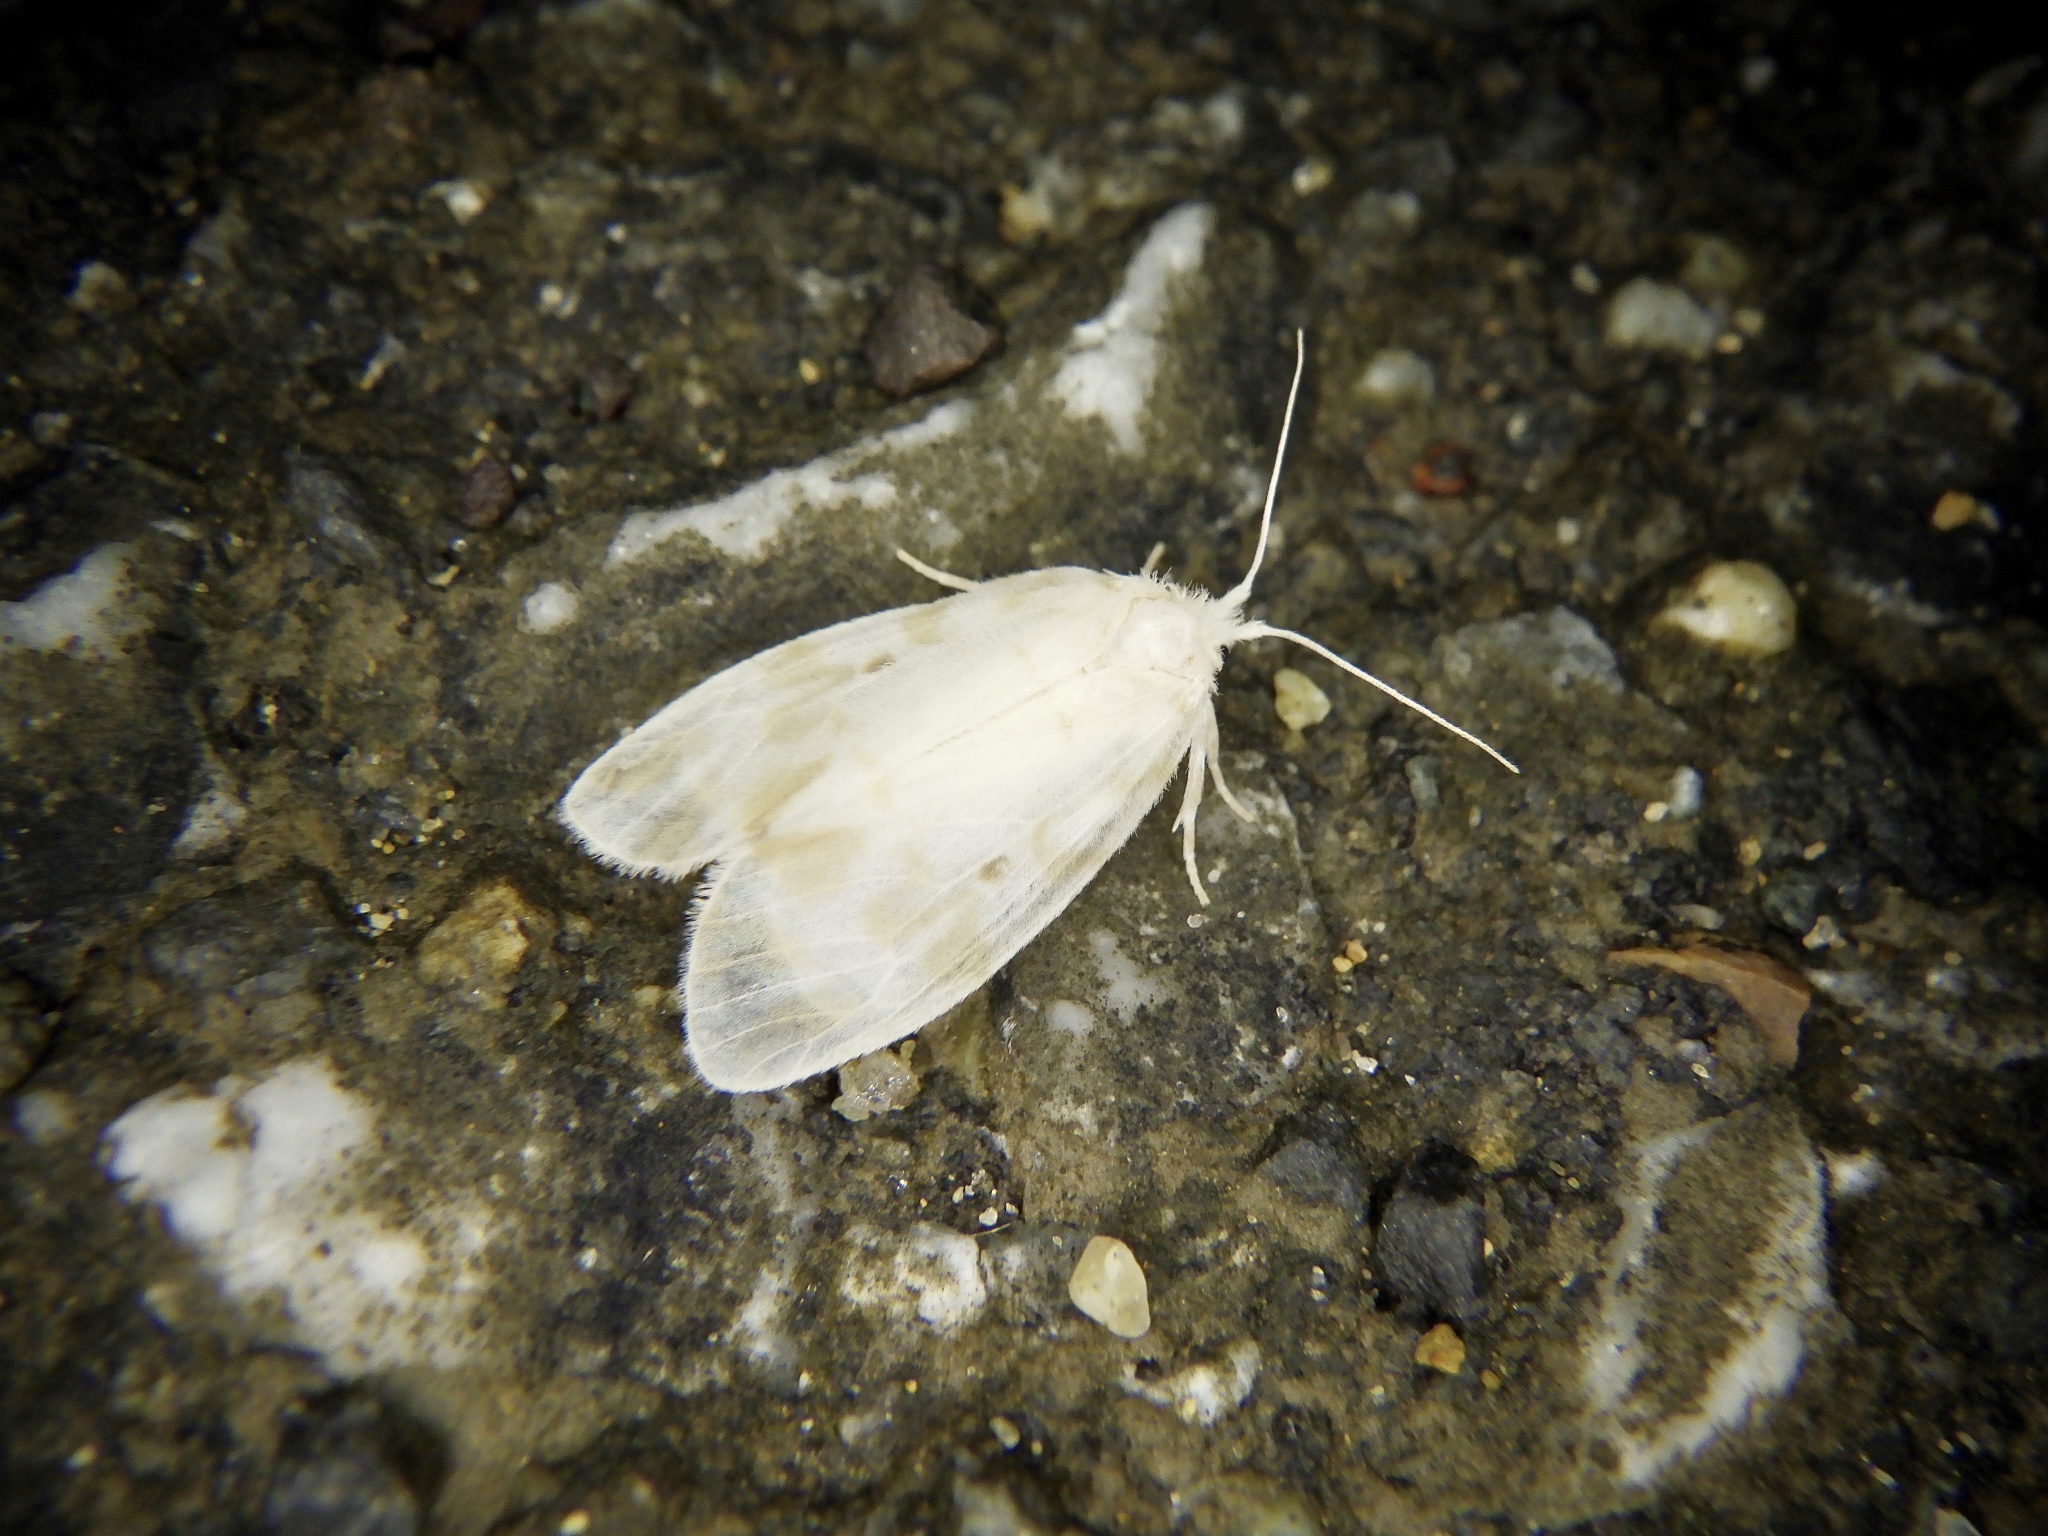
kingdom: Animalia
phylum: Arthropoda
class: Insecta
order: Lepidoptera
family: Erebidae
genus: Nudaria
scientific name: Nudaria ranruna
